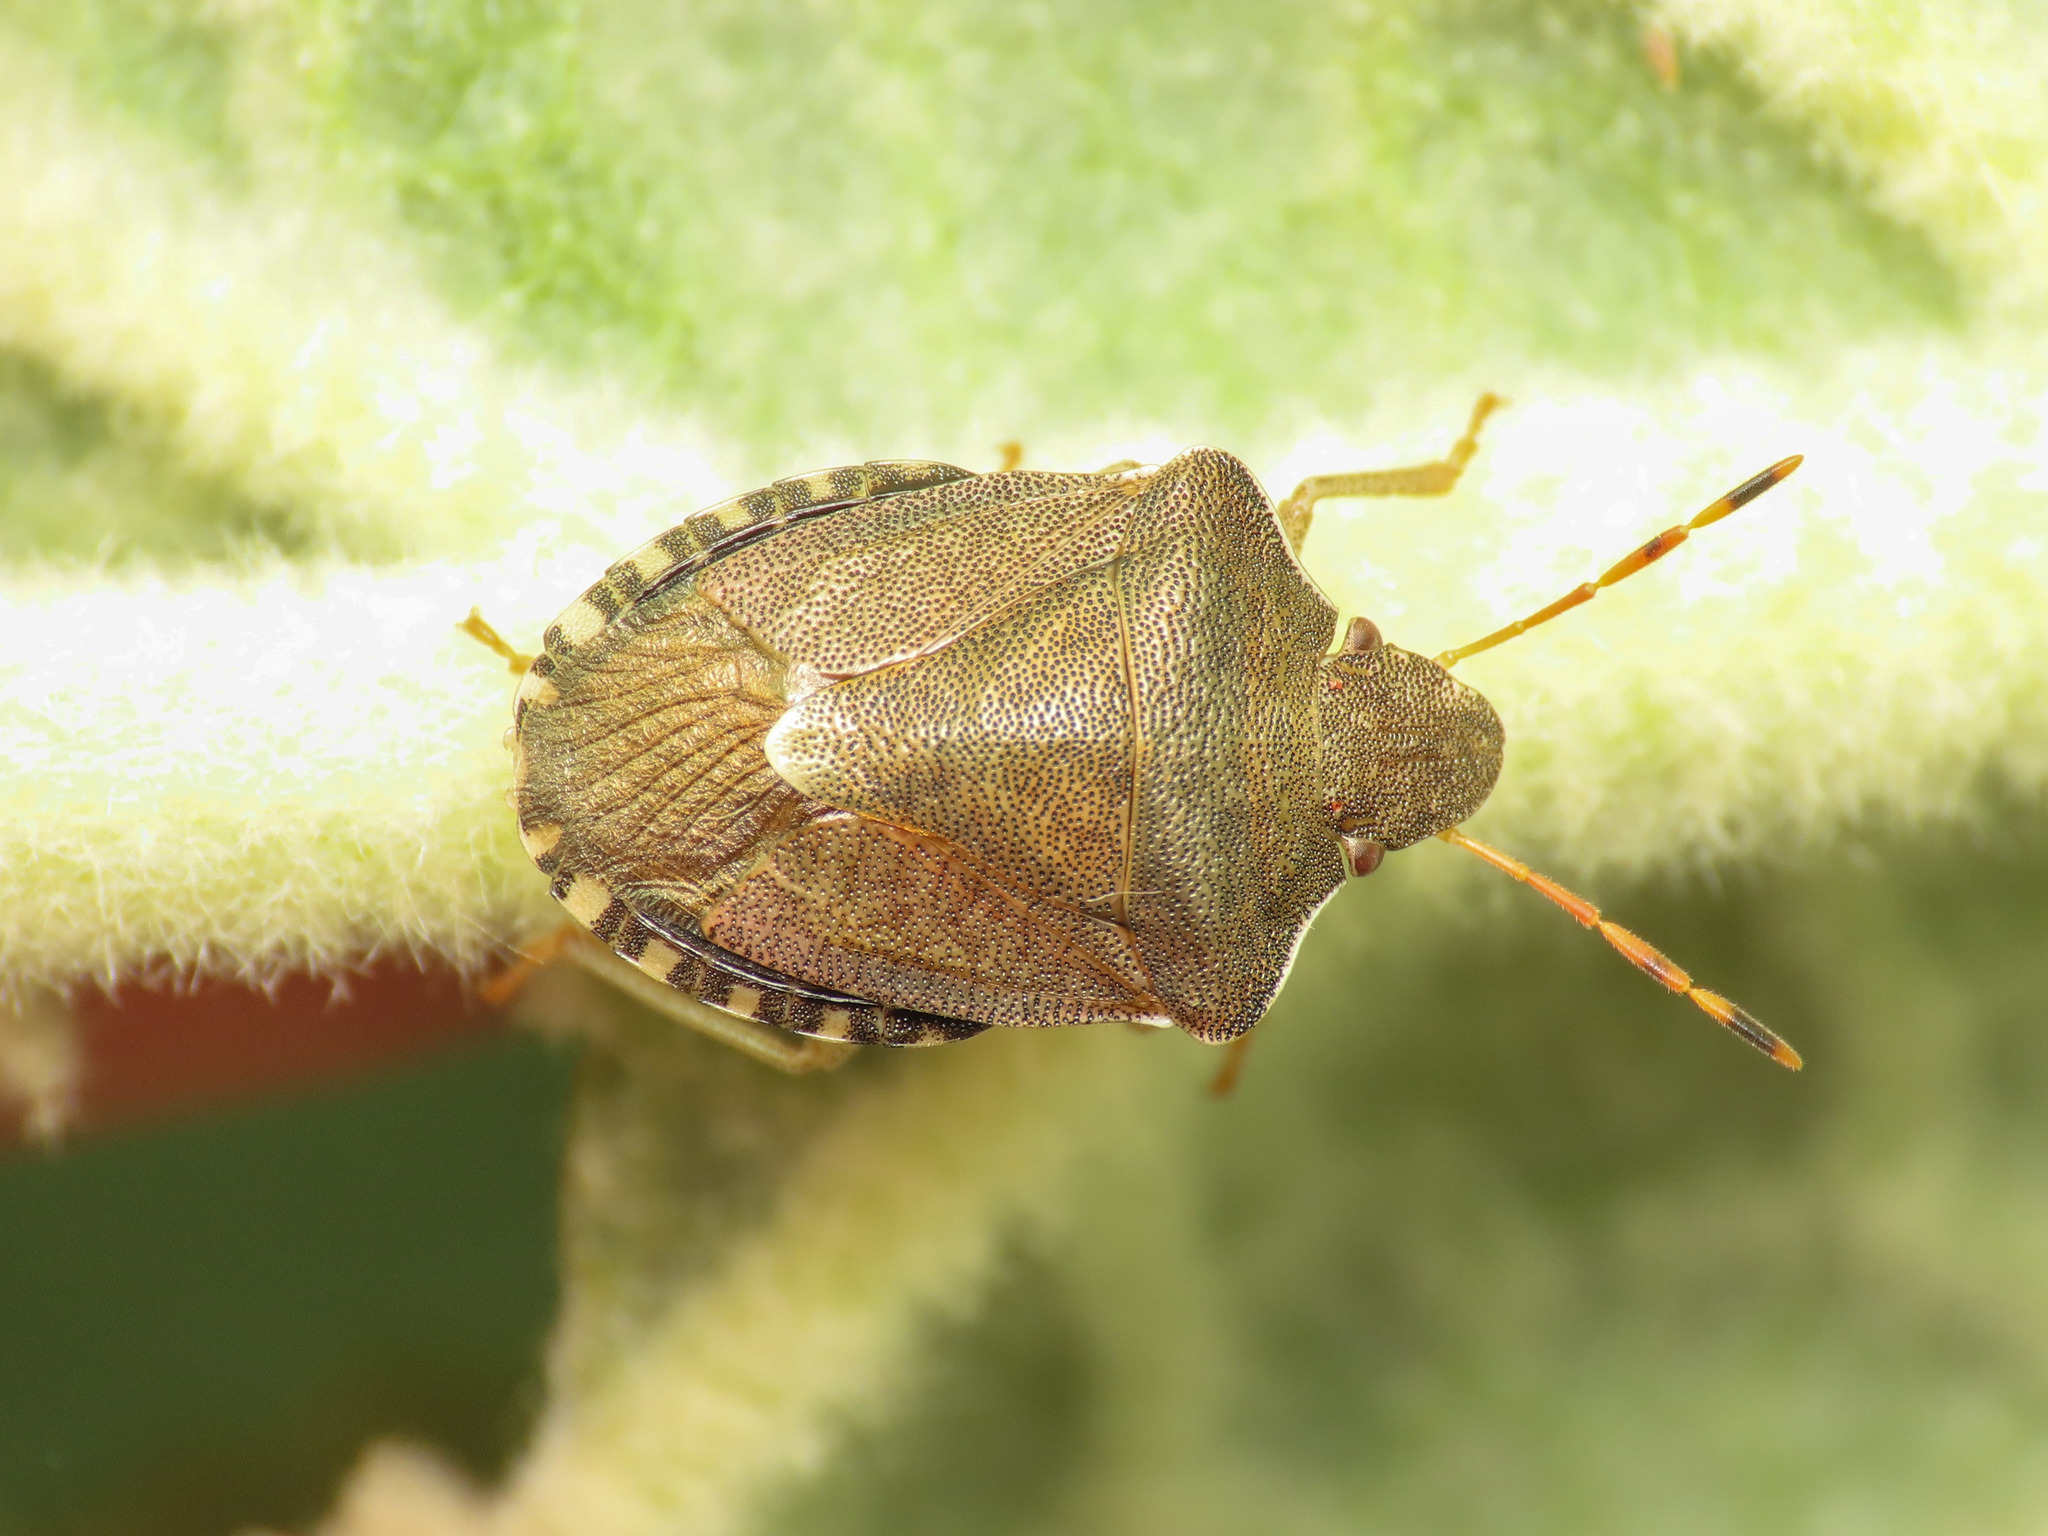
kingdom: Animalia
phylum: Arthropoda
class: Insecta
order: Hemiptera
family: Pentatomidae
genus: Holcostethus
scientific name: Holcostethus strictus
